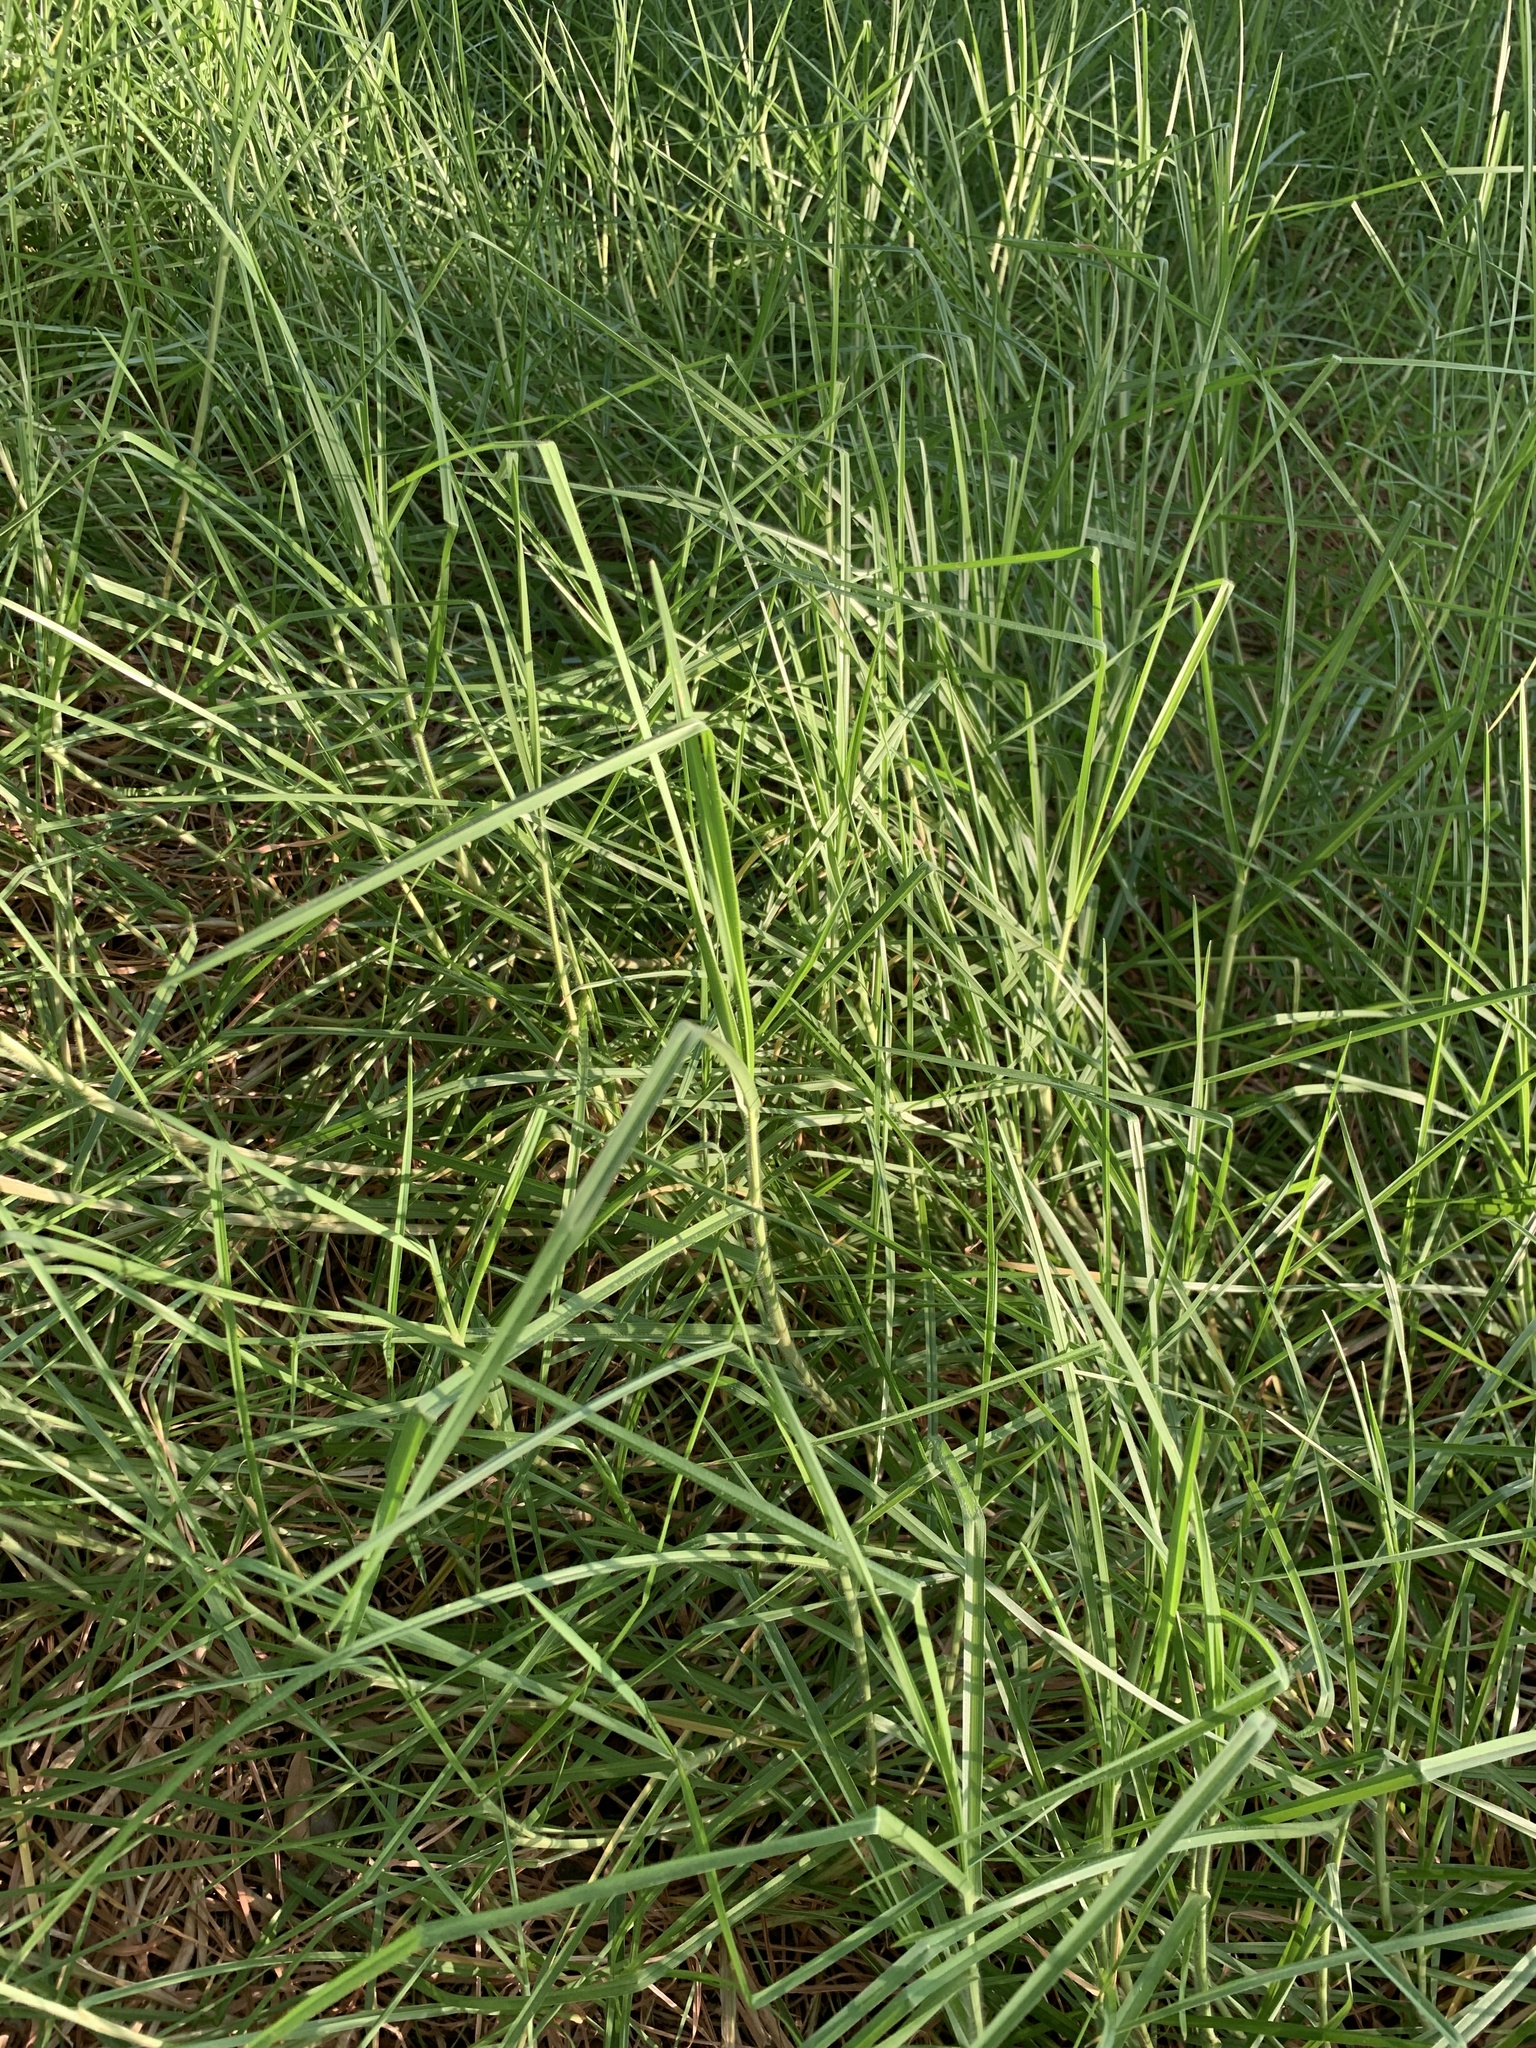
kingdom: Plantae
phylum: Tracheophyta
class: Liliopsida
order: Poales
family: Poaceae
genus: Cenchrus
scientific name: Cenchrus clandestinus
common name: Kikuyugrass
